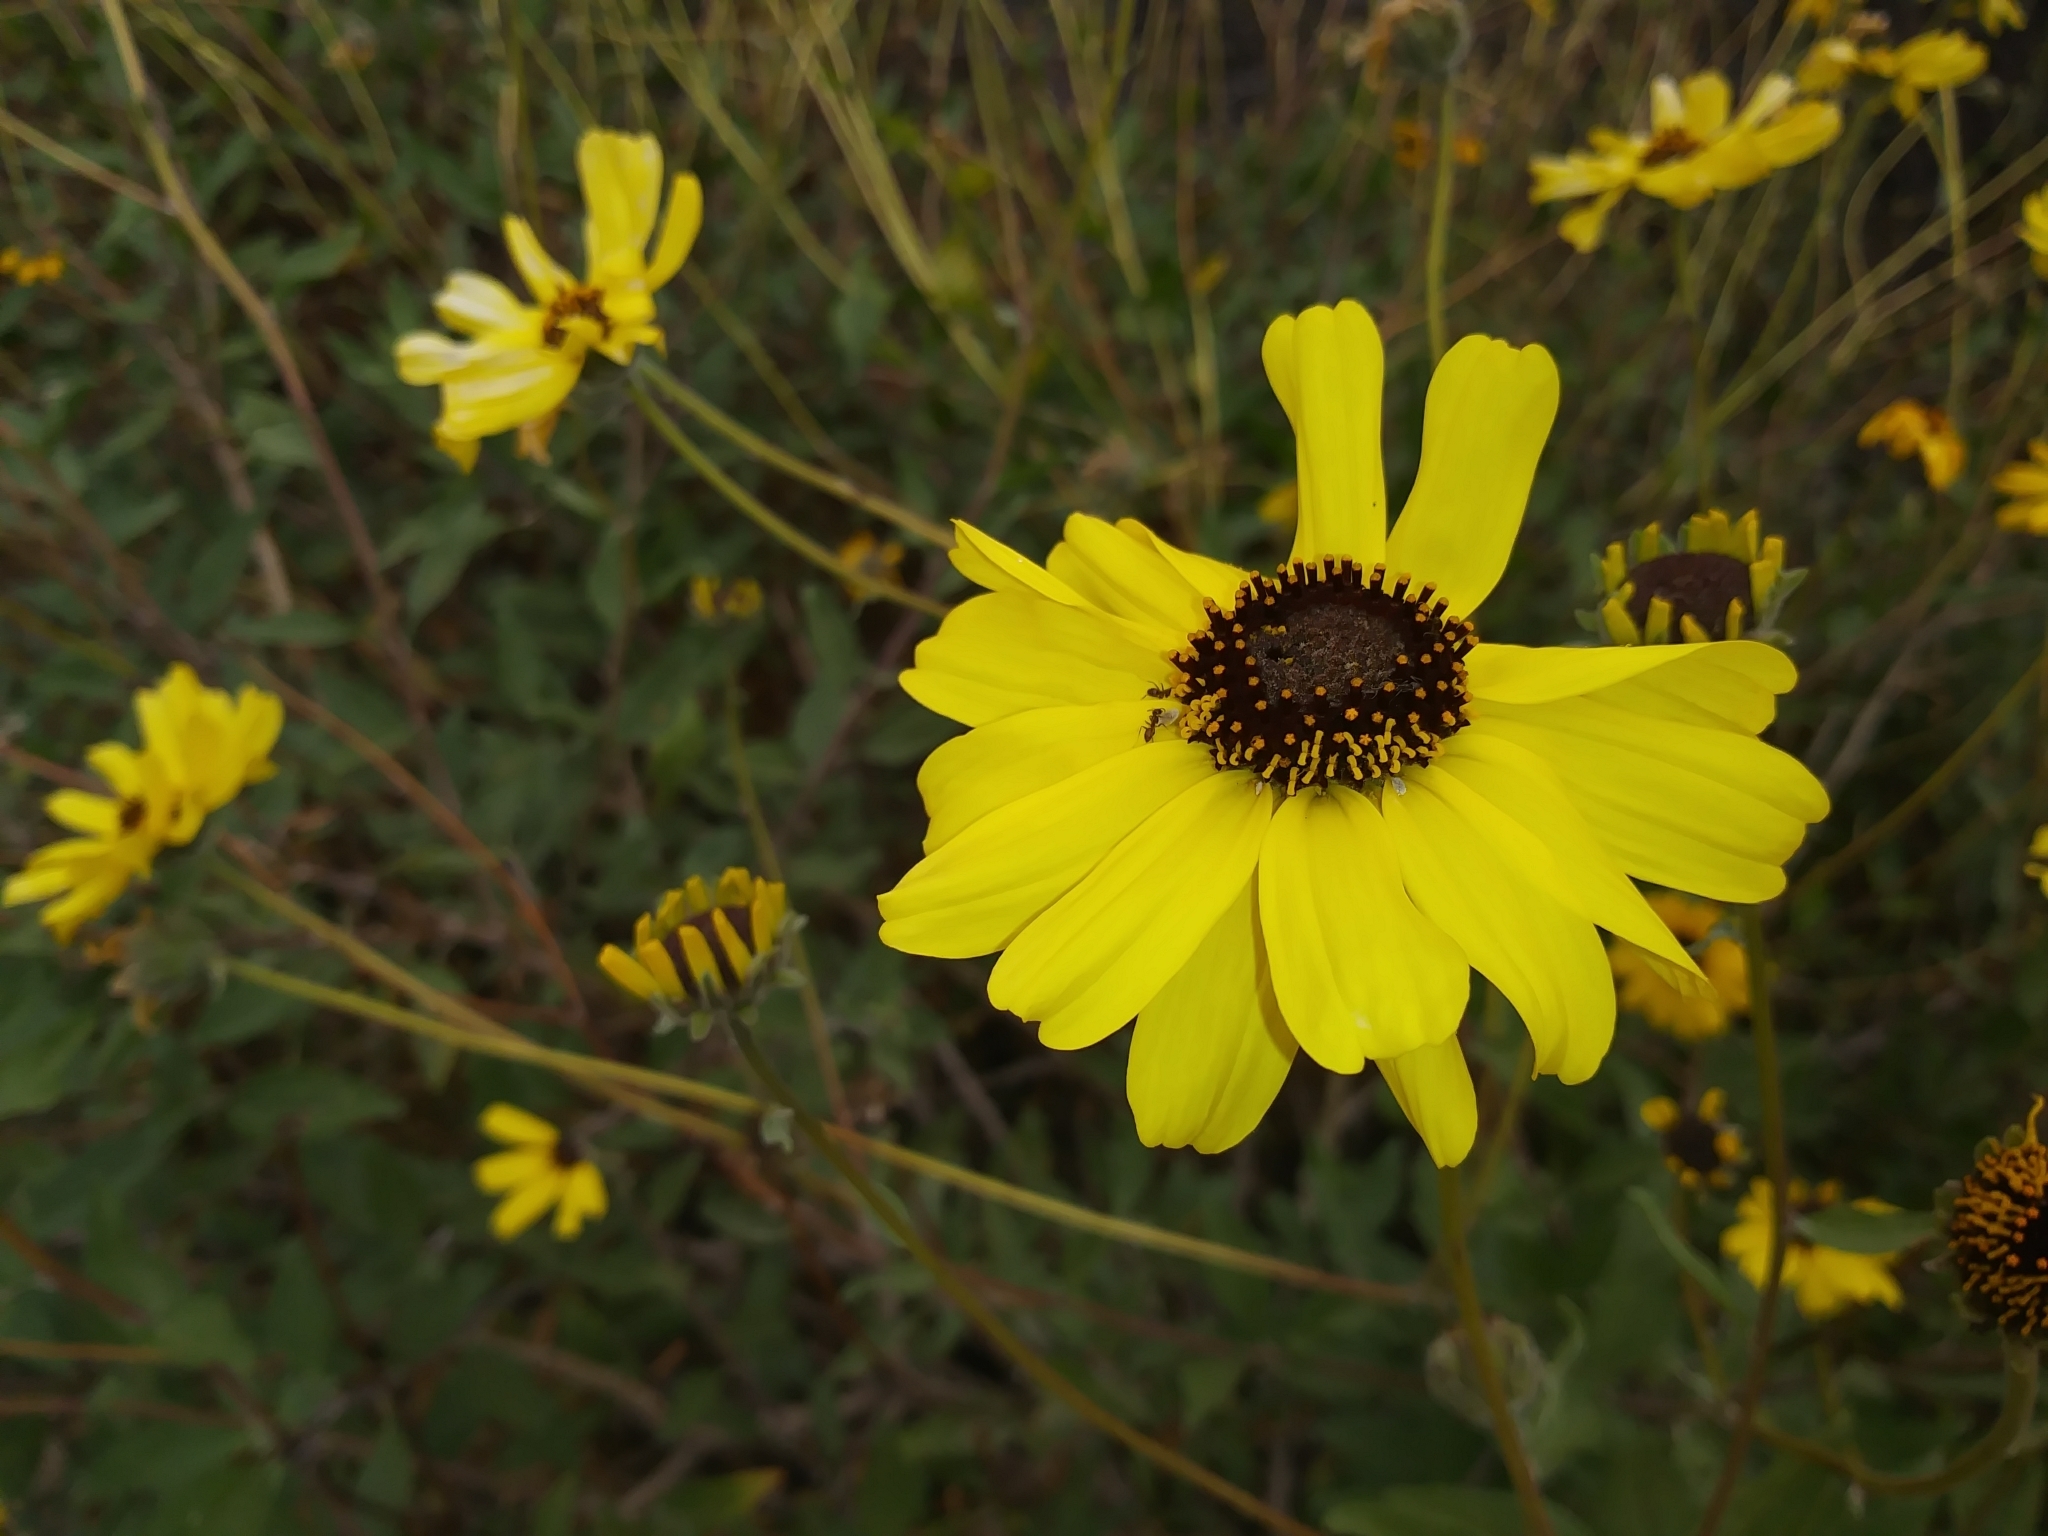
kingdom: Plantae
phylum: Tracheophyta
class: Magnoliopsida
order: Asterales
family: Asteraceae
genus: Encelia
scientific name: Encelia californica
